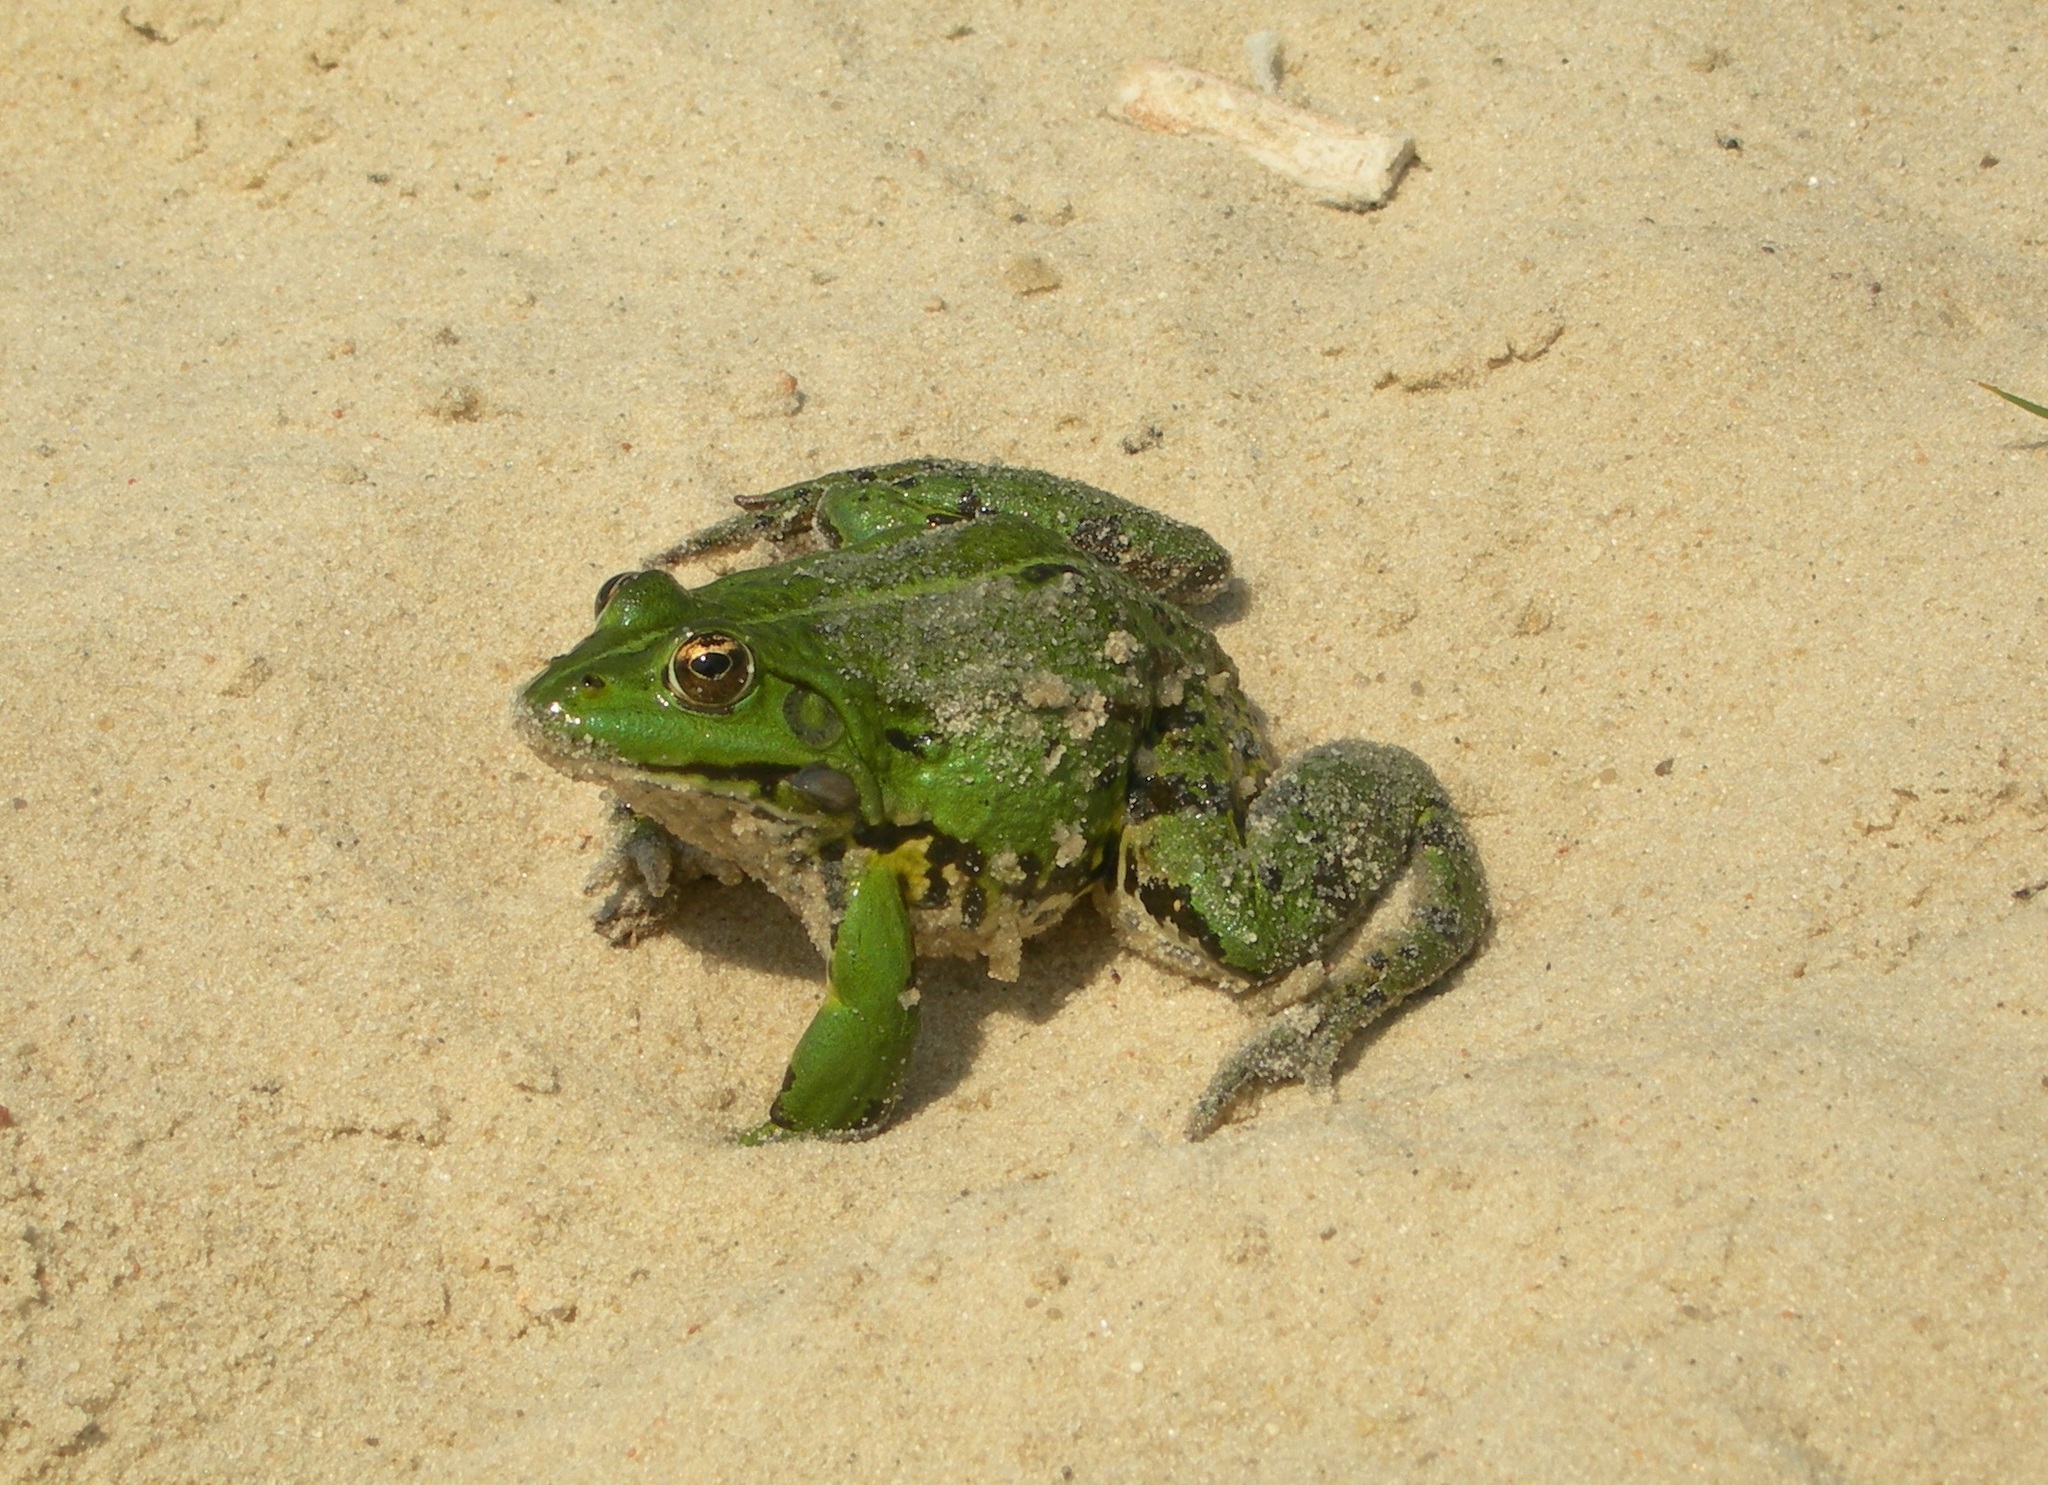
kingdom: Animalia
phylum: Chordata
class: Amphibia
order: Anura
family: Ranidae
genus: Pelophylax
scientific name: Pelophylax ridibundus
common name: Marsh frog
